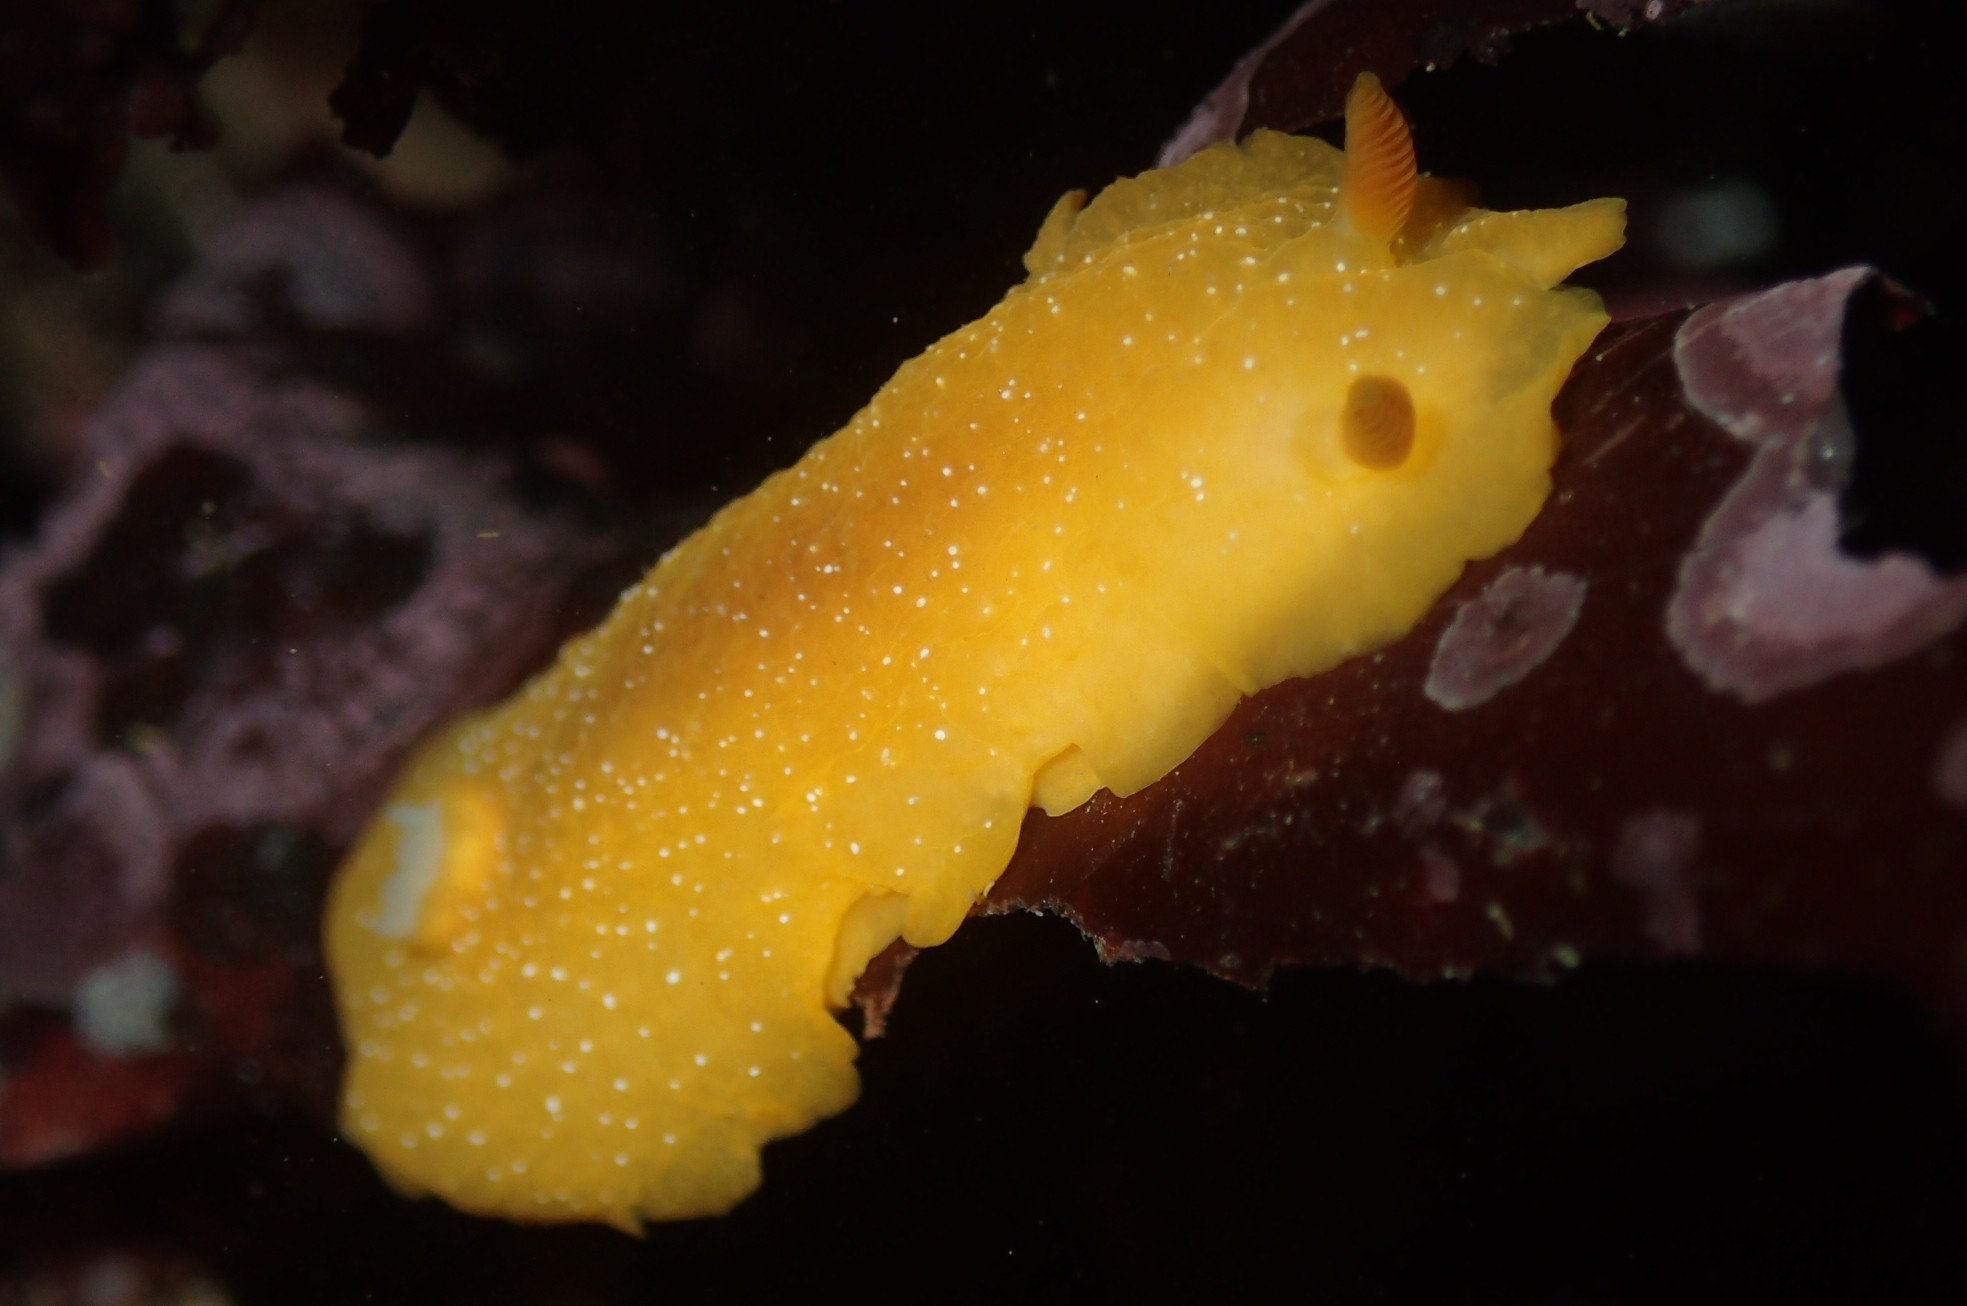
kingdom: Animalia
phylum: Mollusca
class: Gastropoda
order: Nudibranchia
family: Dendrodorididae
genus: Doriopsilla
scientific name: Doriopsilla fulva
